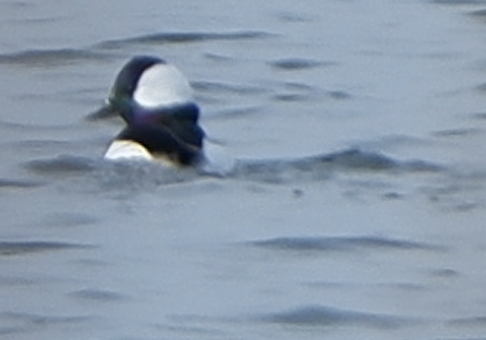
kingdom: Animalia
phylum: Chordata
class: Aves
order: Anseriformes
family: Anatidae
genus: Bucephala
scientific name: Bucephala albeola
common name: Bufflehead
